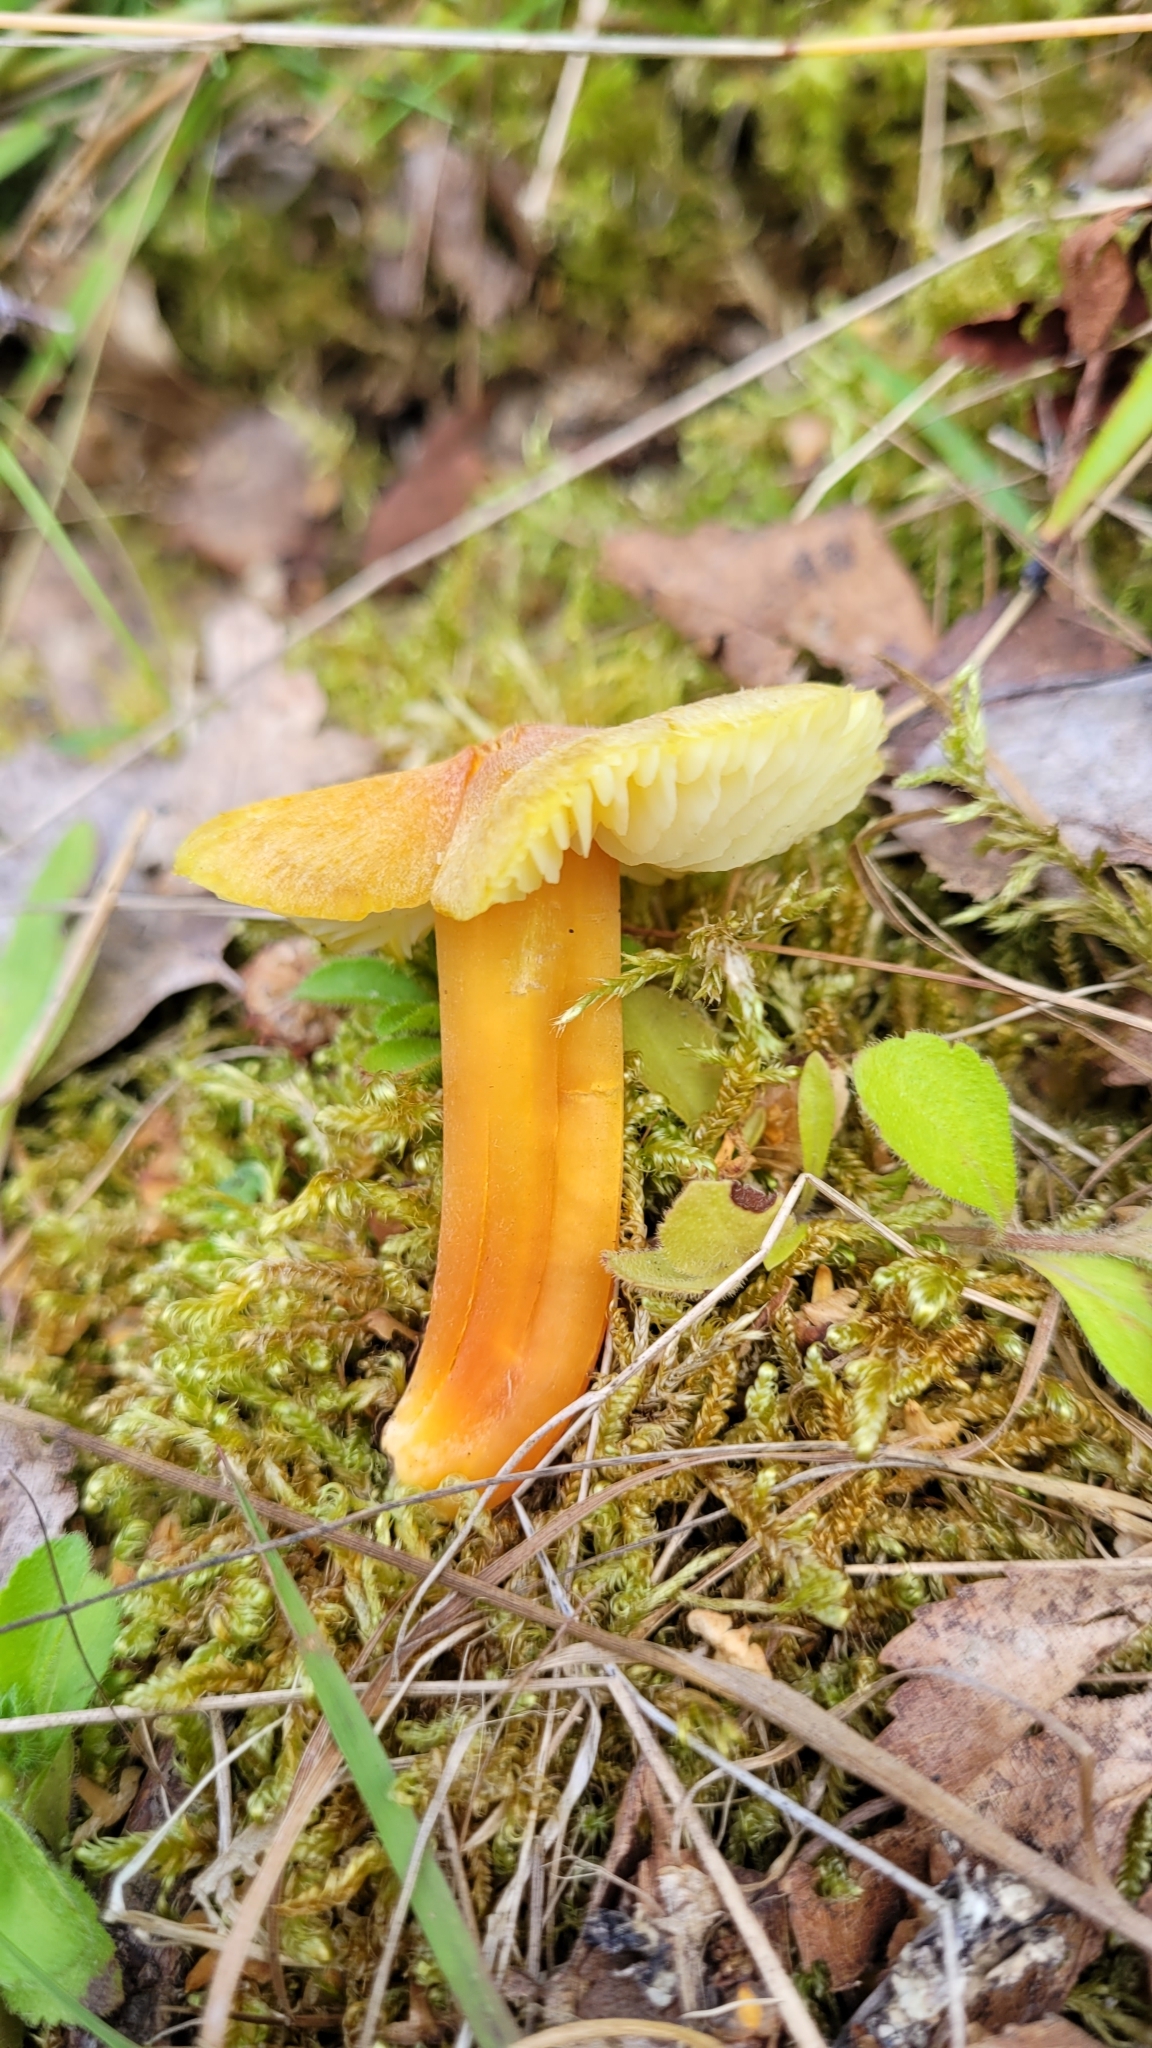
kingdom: Fungi
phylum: Basidiomycota
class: Agaricomycetes
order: Agaricales
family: Hygrophoraceae
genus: Hygrocybe
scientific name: Hygrocybe chlorophana
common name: Golden waxcap
